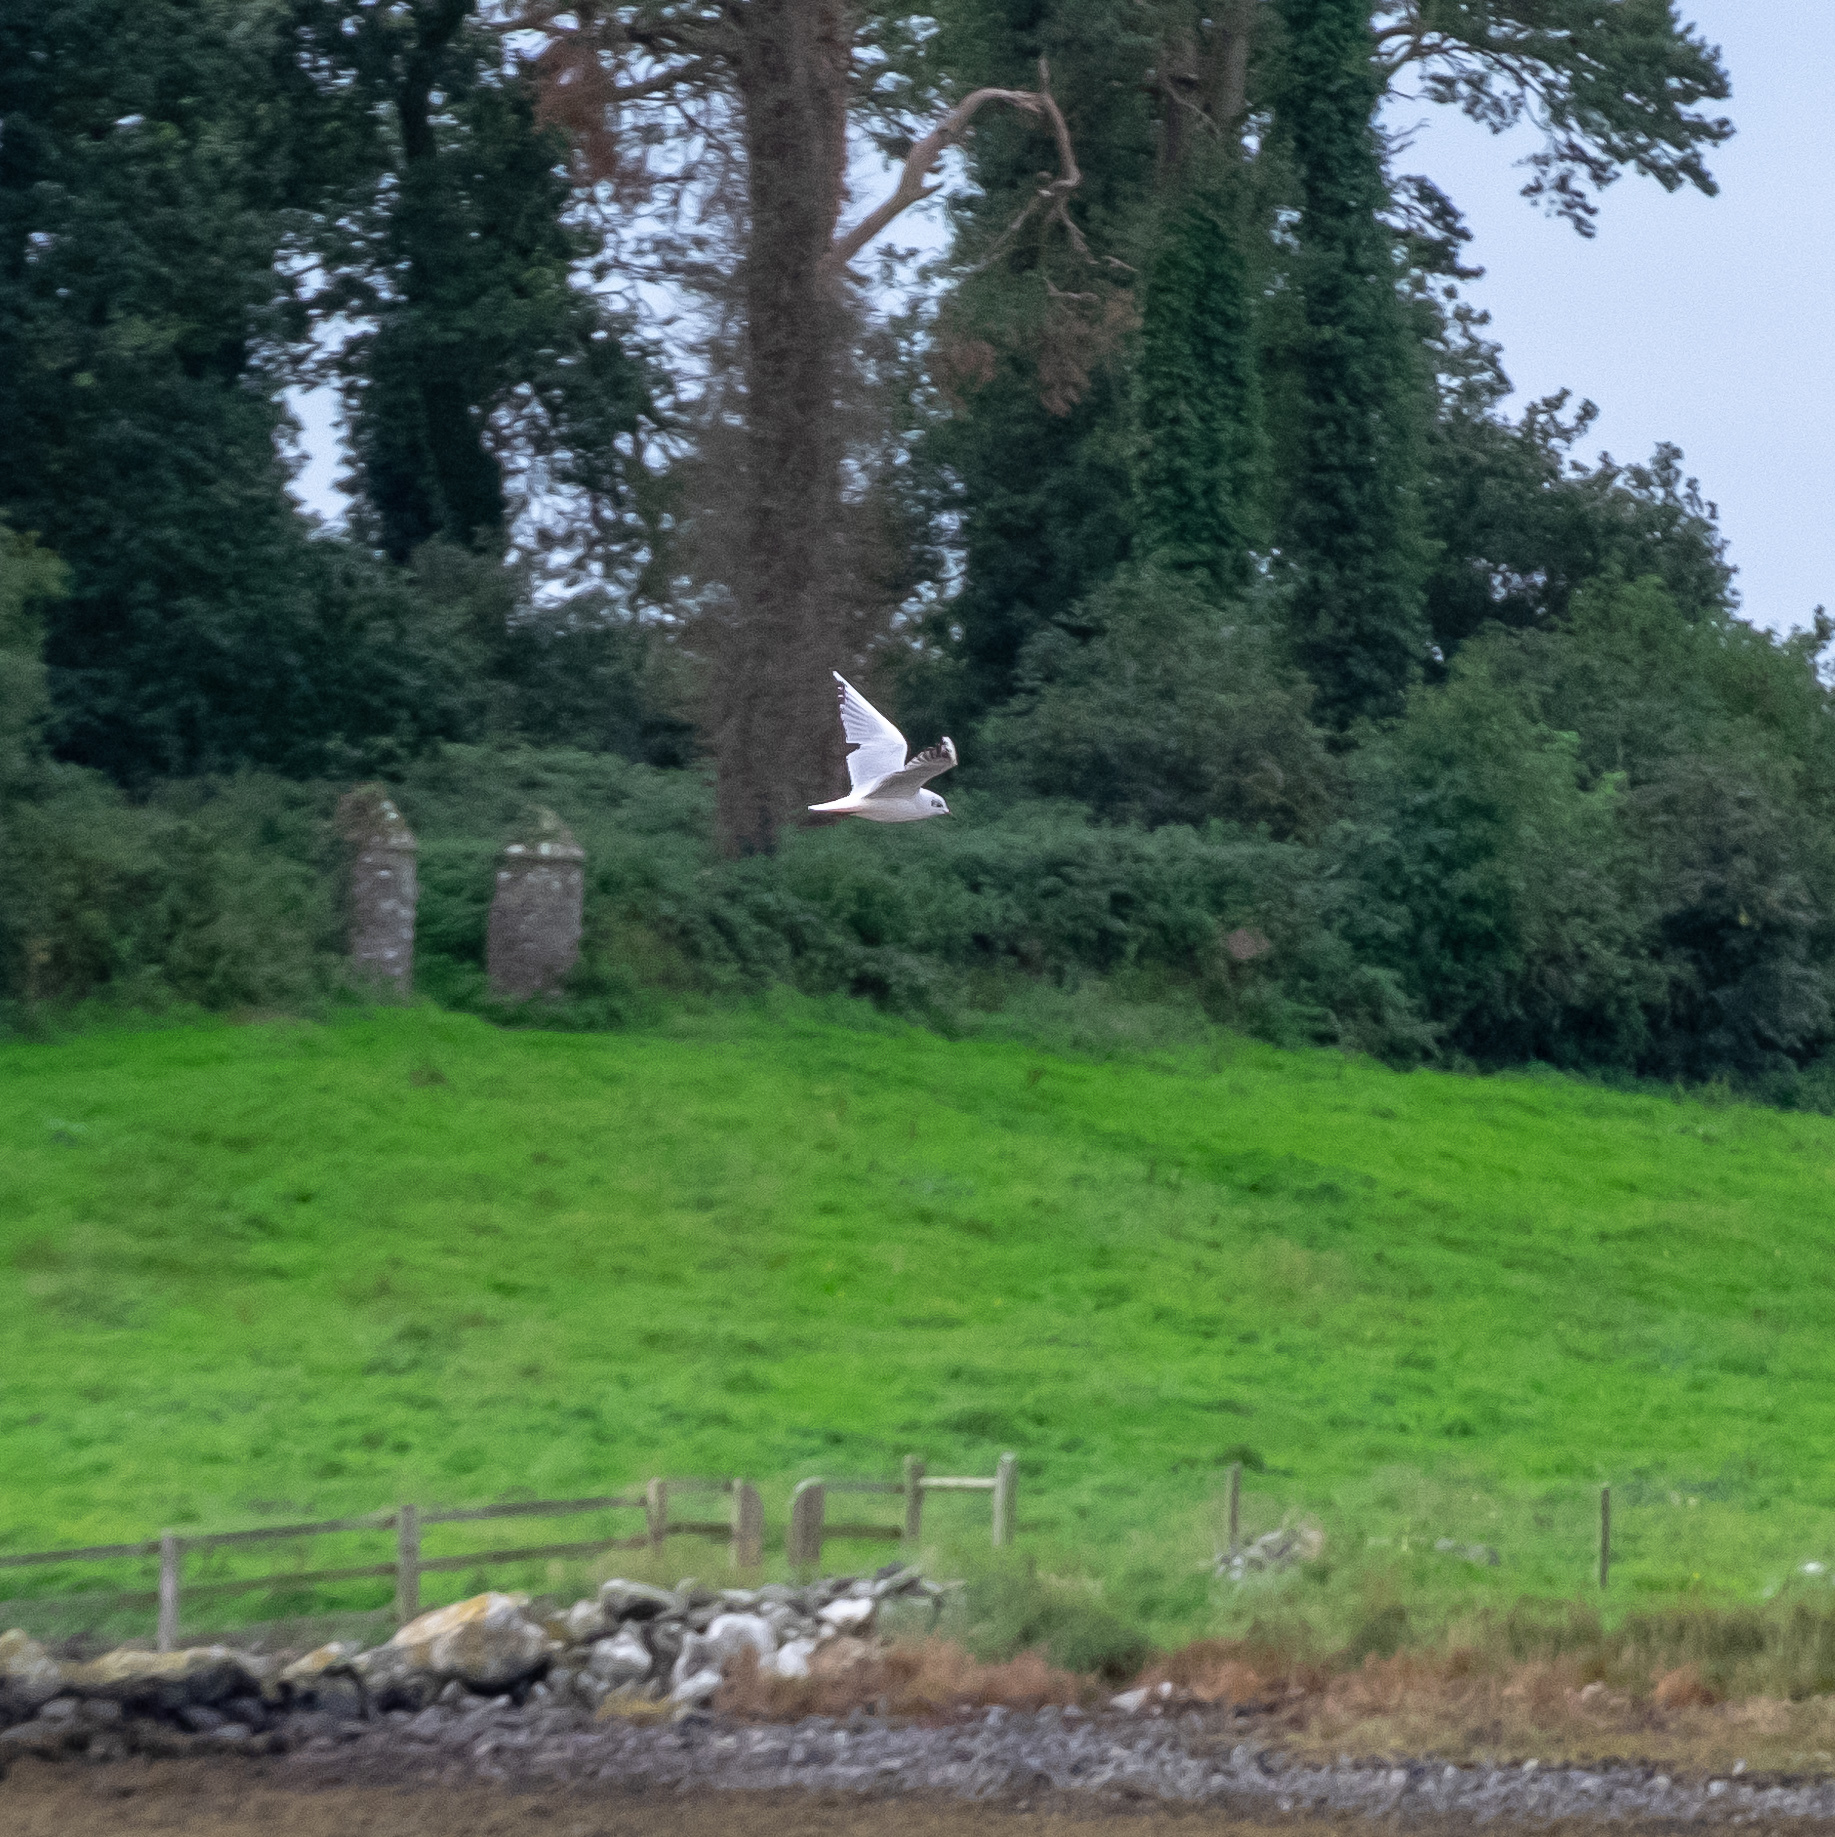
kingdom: Animalia
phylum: Chordata
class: Aves
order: Charadriiformes
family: Laridae
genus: Chroicocephalus
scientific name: Chroicocephalus ridibundus
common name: Black-headed gull
